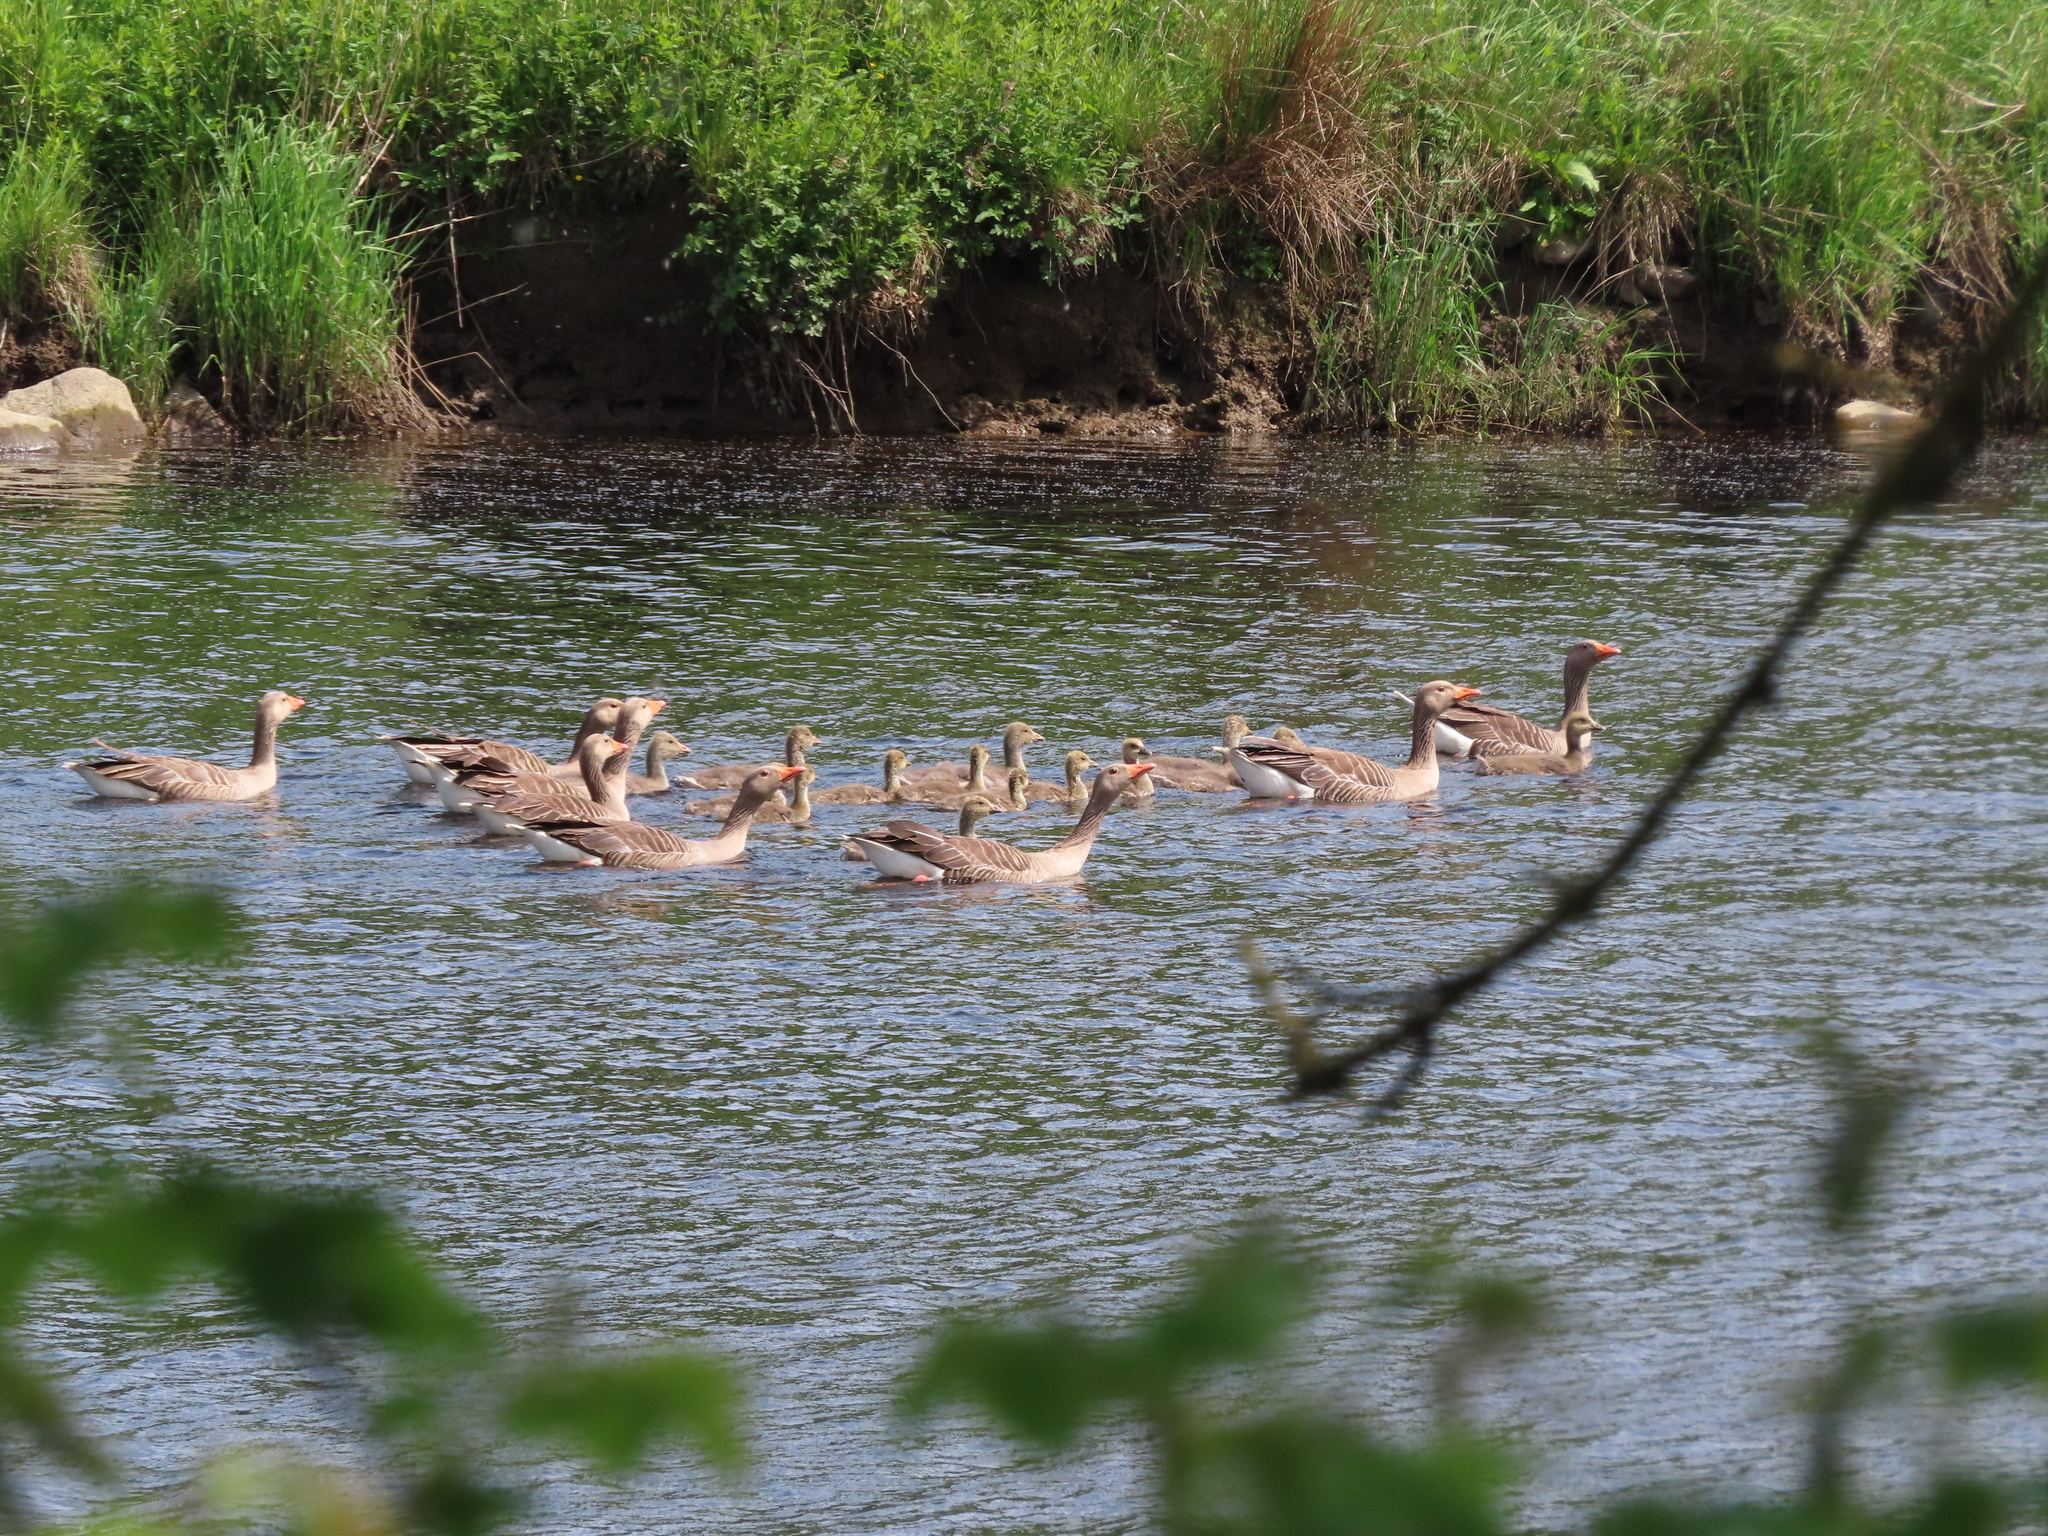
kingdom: Animalia
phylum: Chordata
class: Aves
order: Anseriformes
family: Anatidae
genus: Anser
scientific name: Anser anser
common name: Greylag goose
